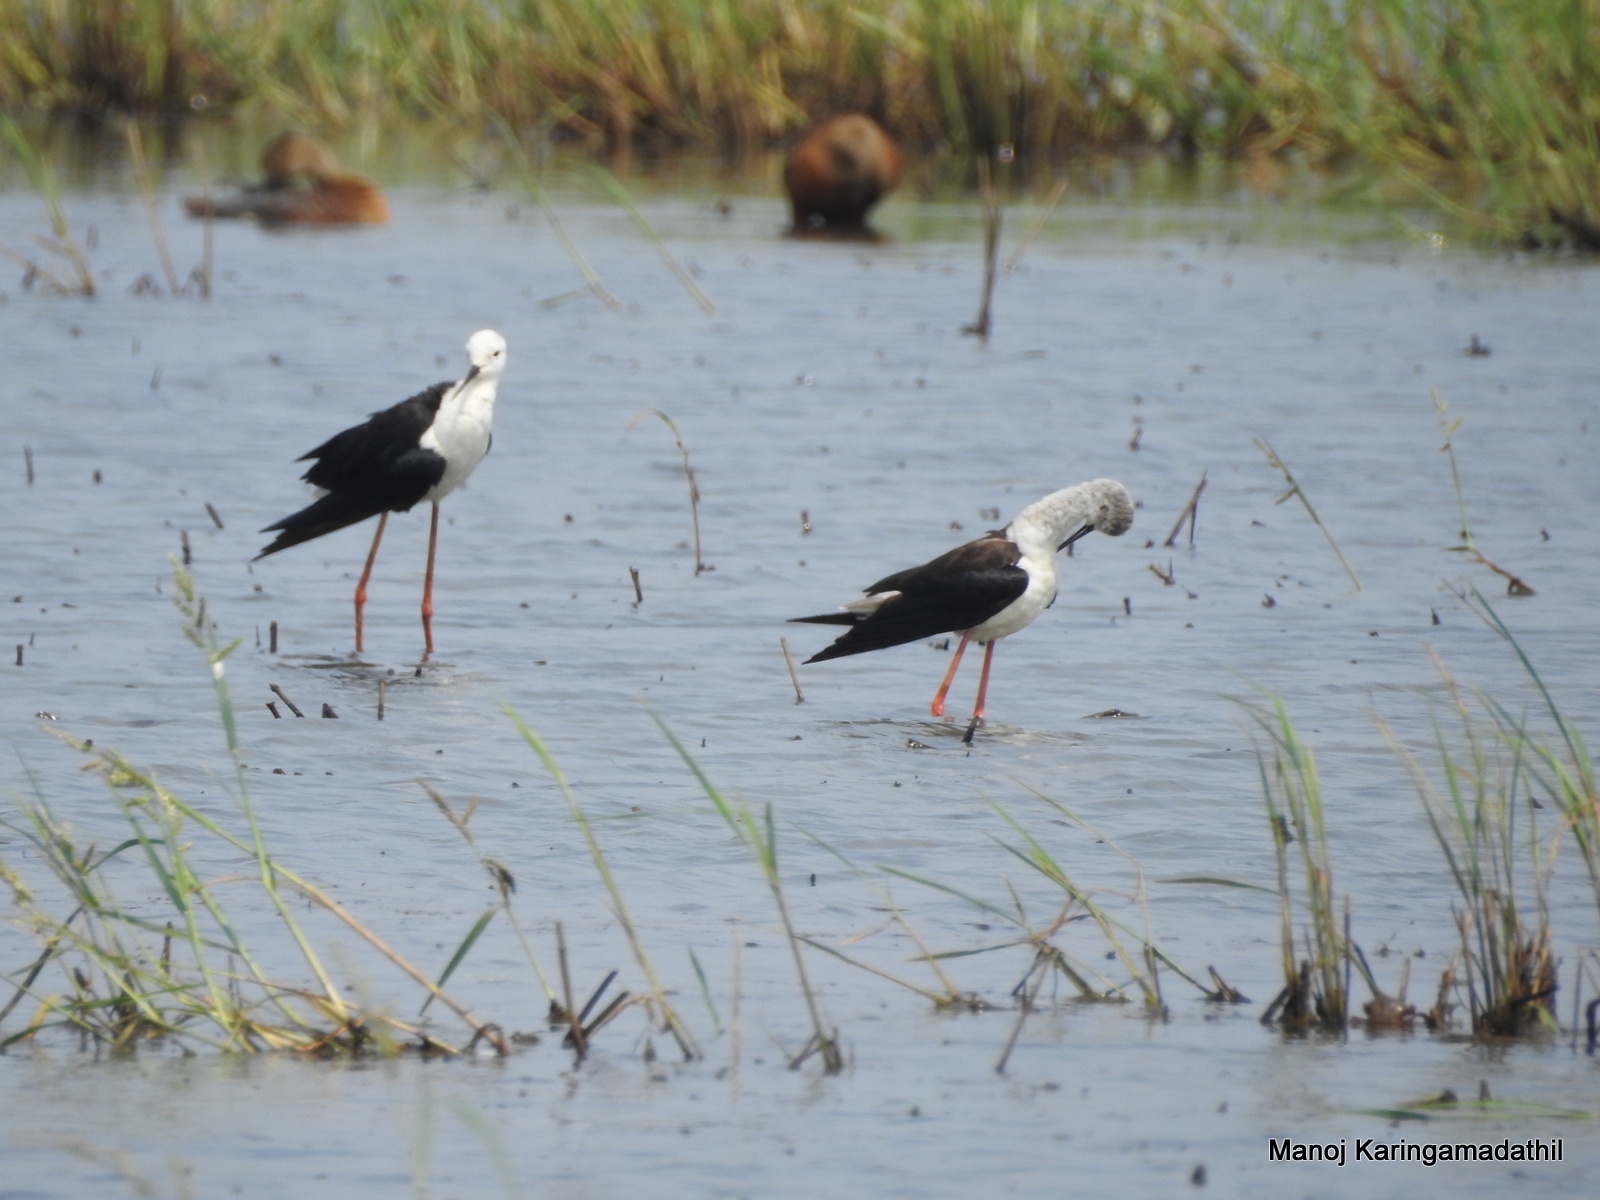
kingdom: Animalia
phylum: Chordata
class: Aves
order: Charadriiformes
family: Recurvirostridae
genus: Himantopus
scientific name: Himantopus himantopus
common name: Black-winged stilt
